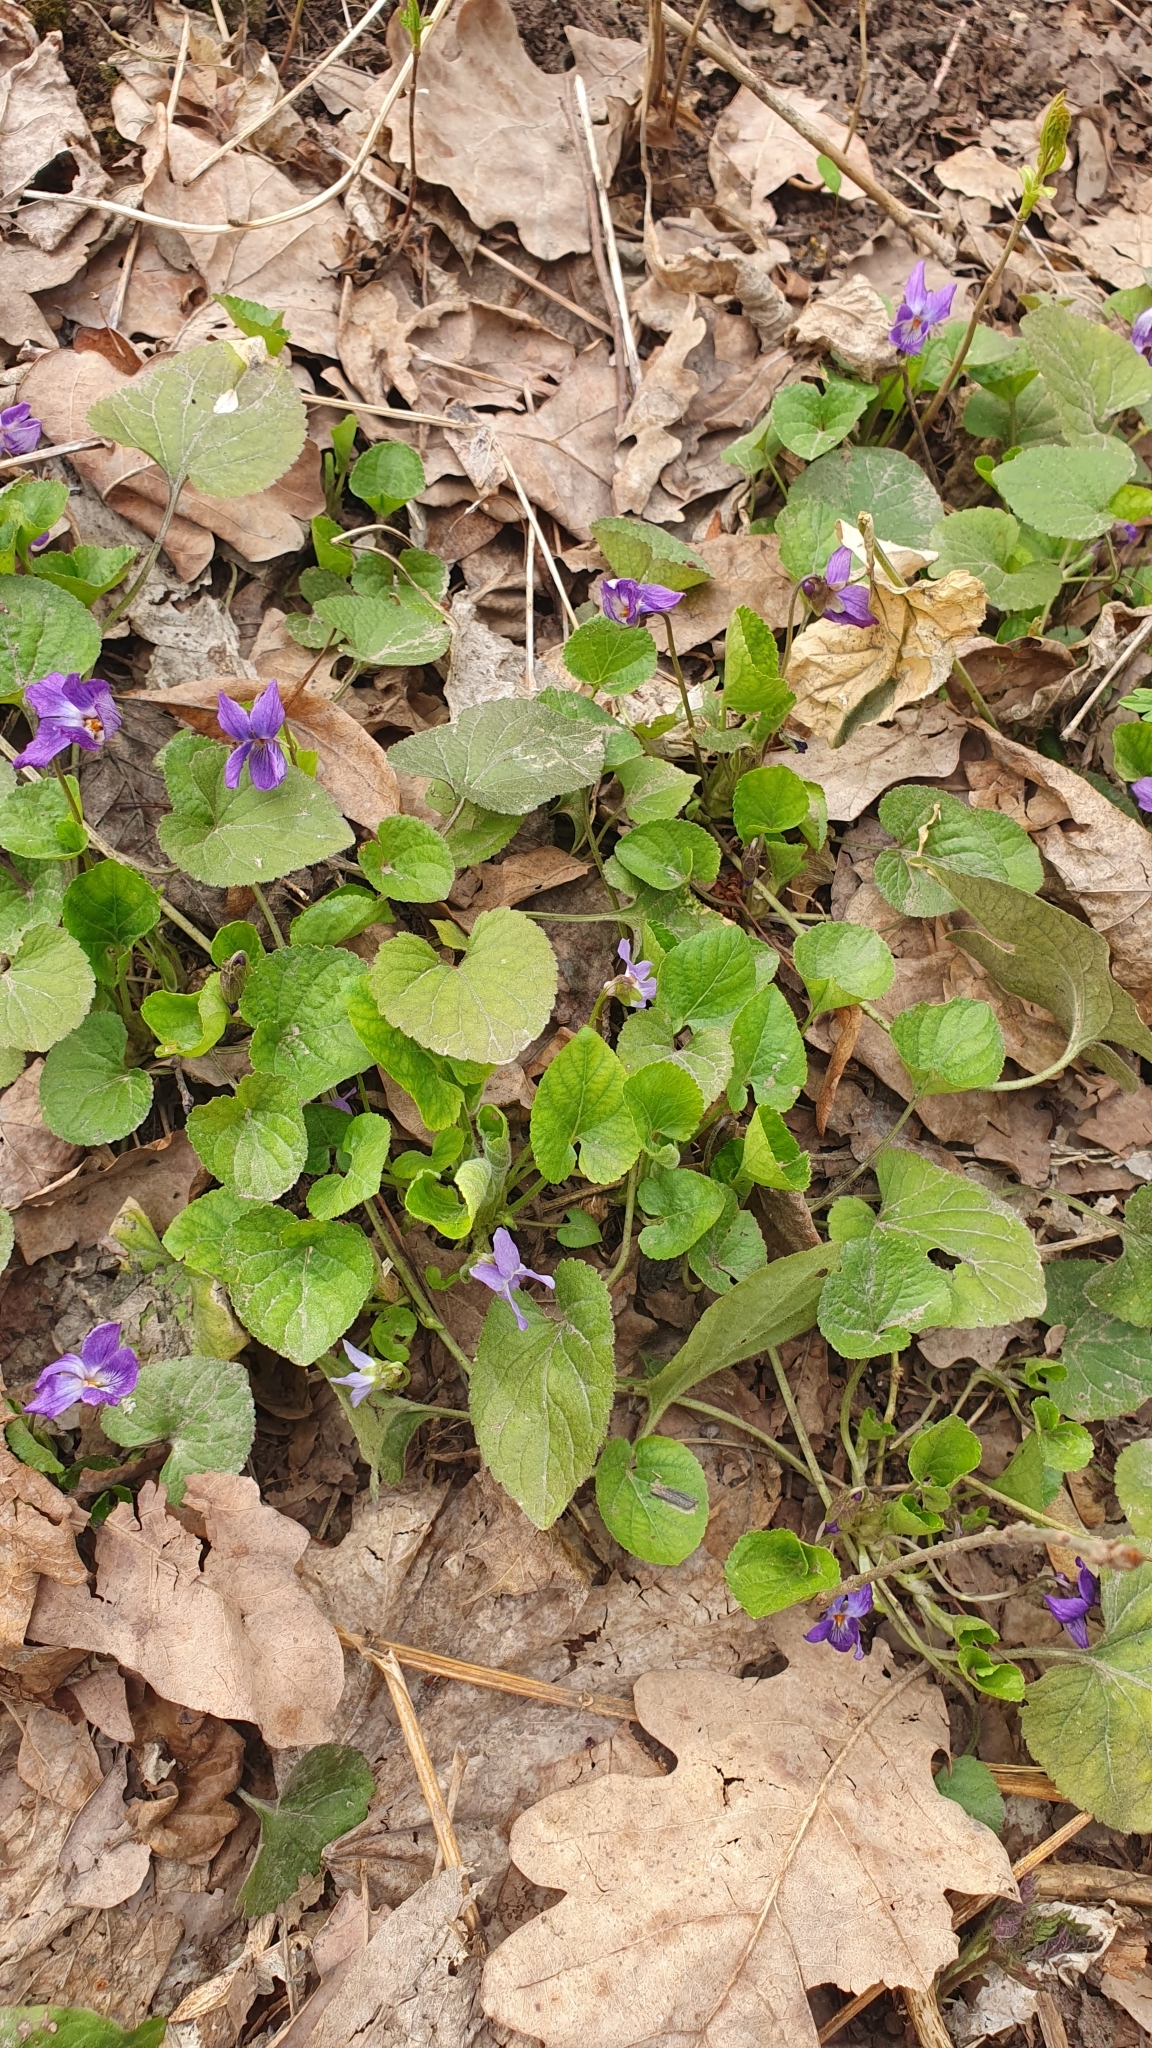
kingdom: Plantae
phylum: Tracheophyta
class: Magnoliopsida
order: Malpighiales
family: Violaceae
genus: Viola
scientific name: Viola odorata
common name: Sweet violet
